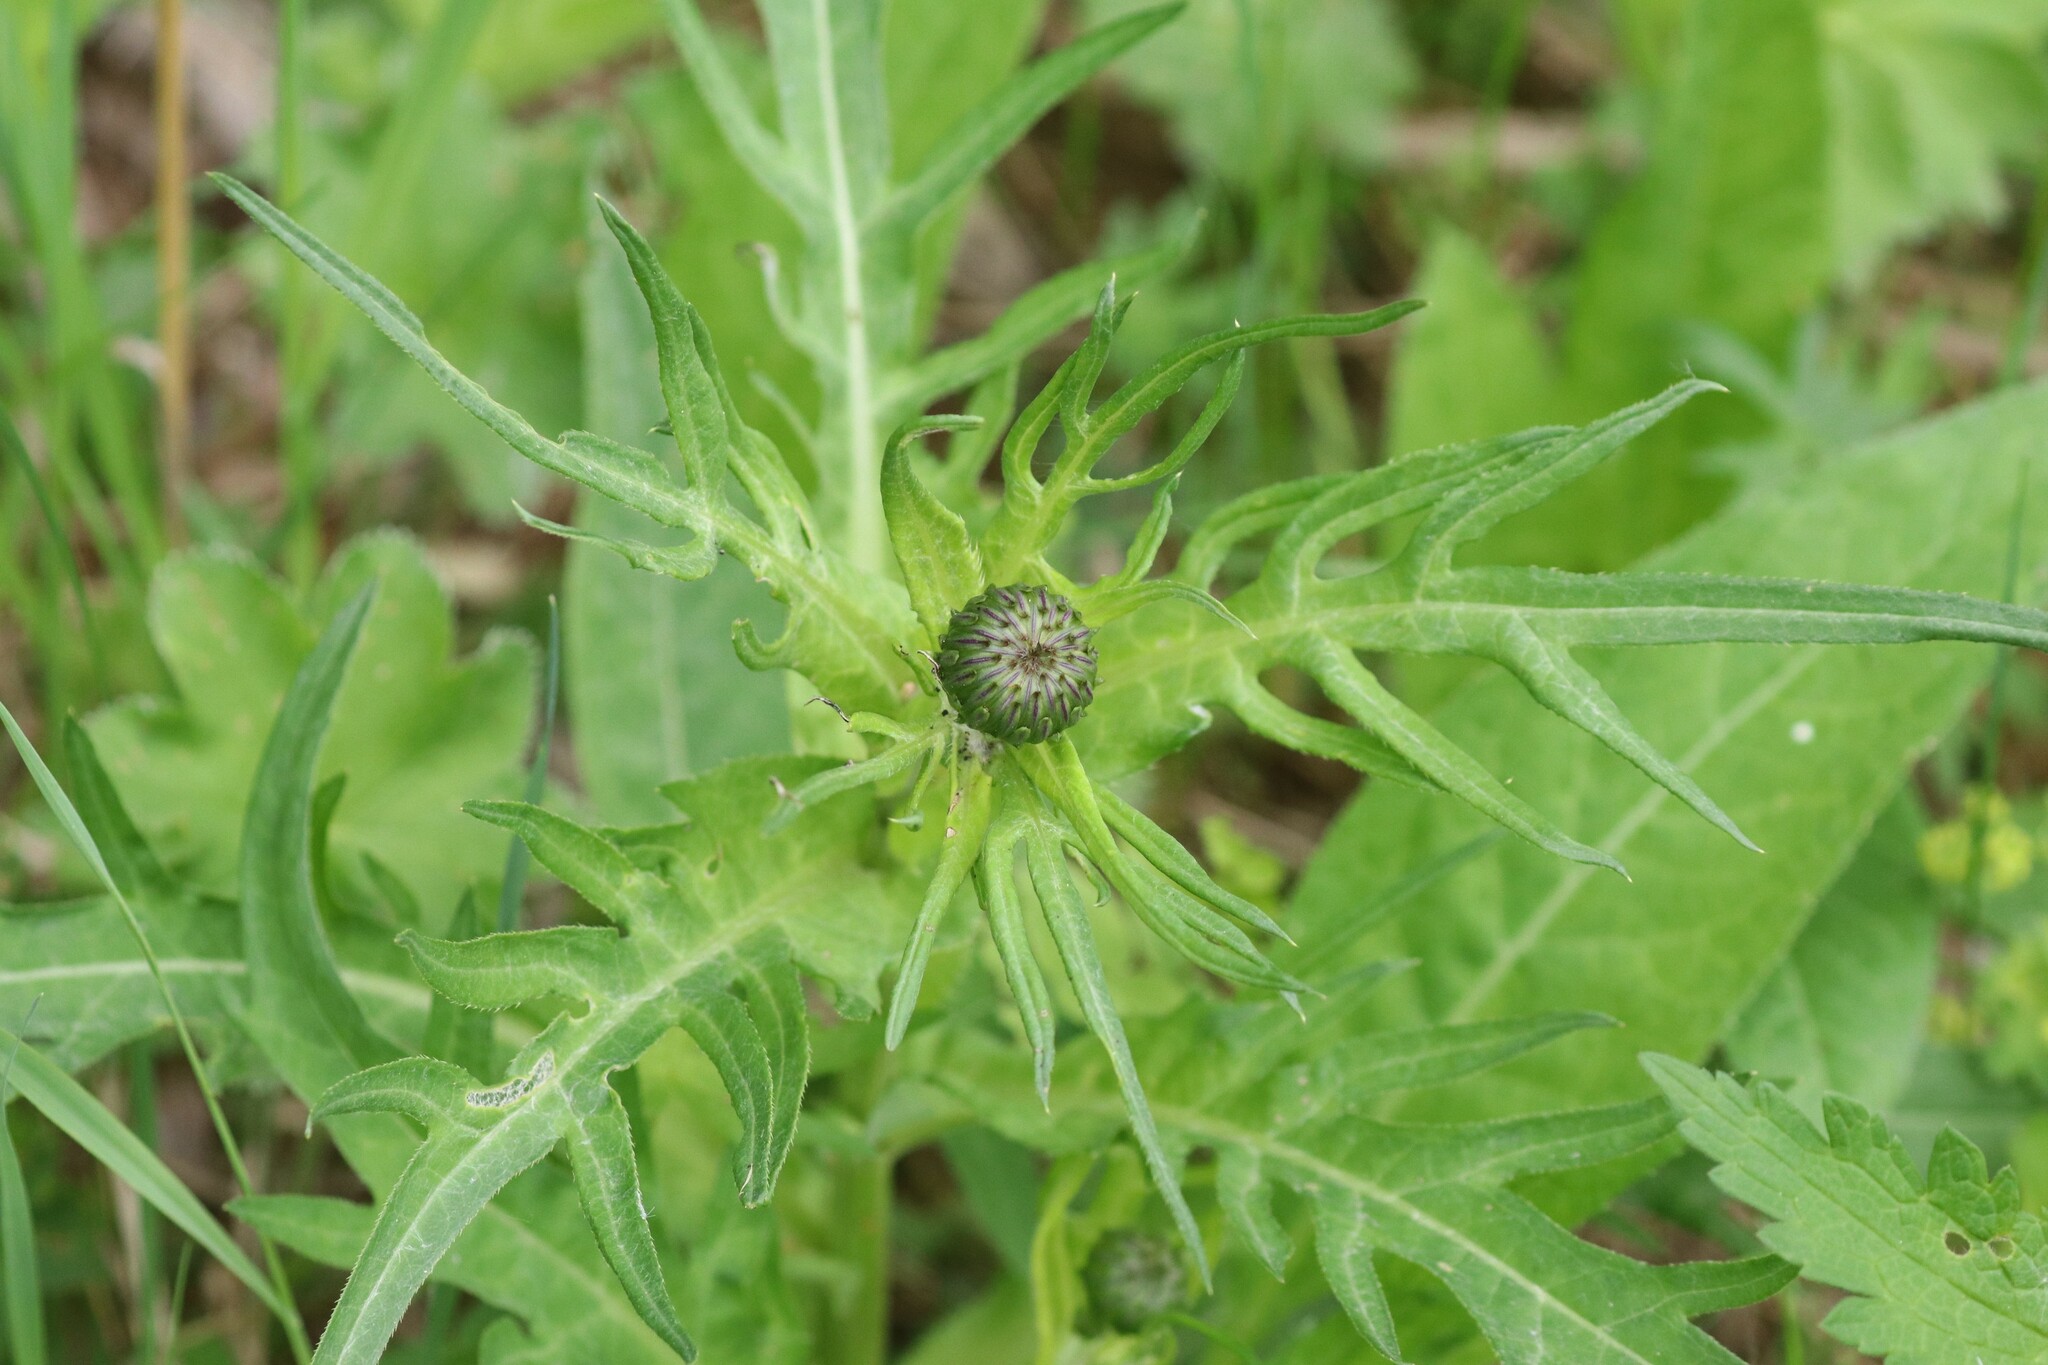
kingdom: Plantae
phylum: Tracheophyta
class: Magnoliopsida
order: Asterales
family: Asteraceae
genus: Cirsium
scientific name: Cirsium heterophyllum
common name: Melancholy thistle
